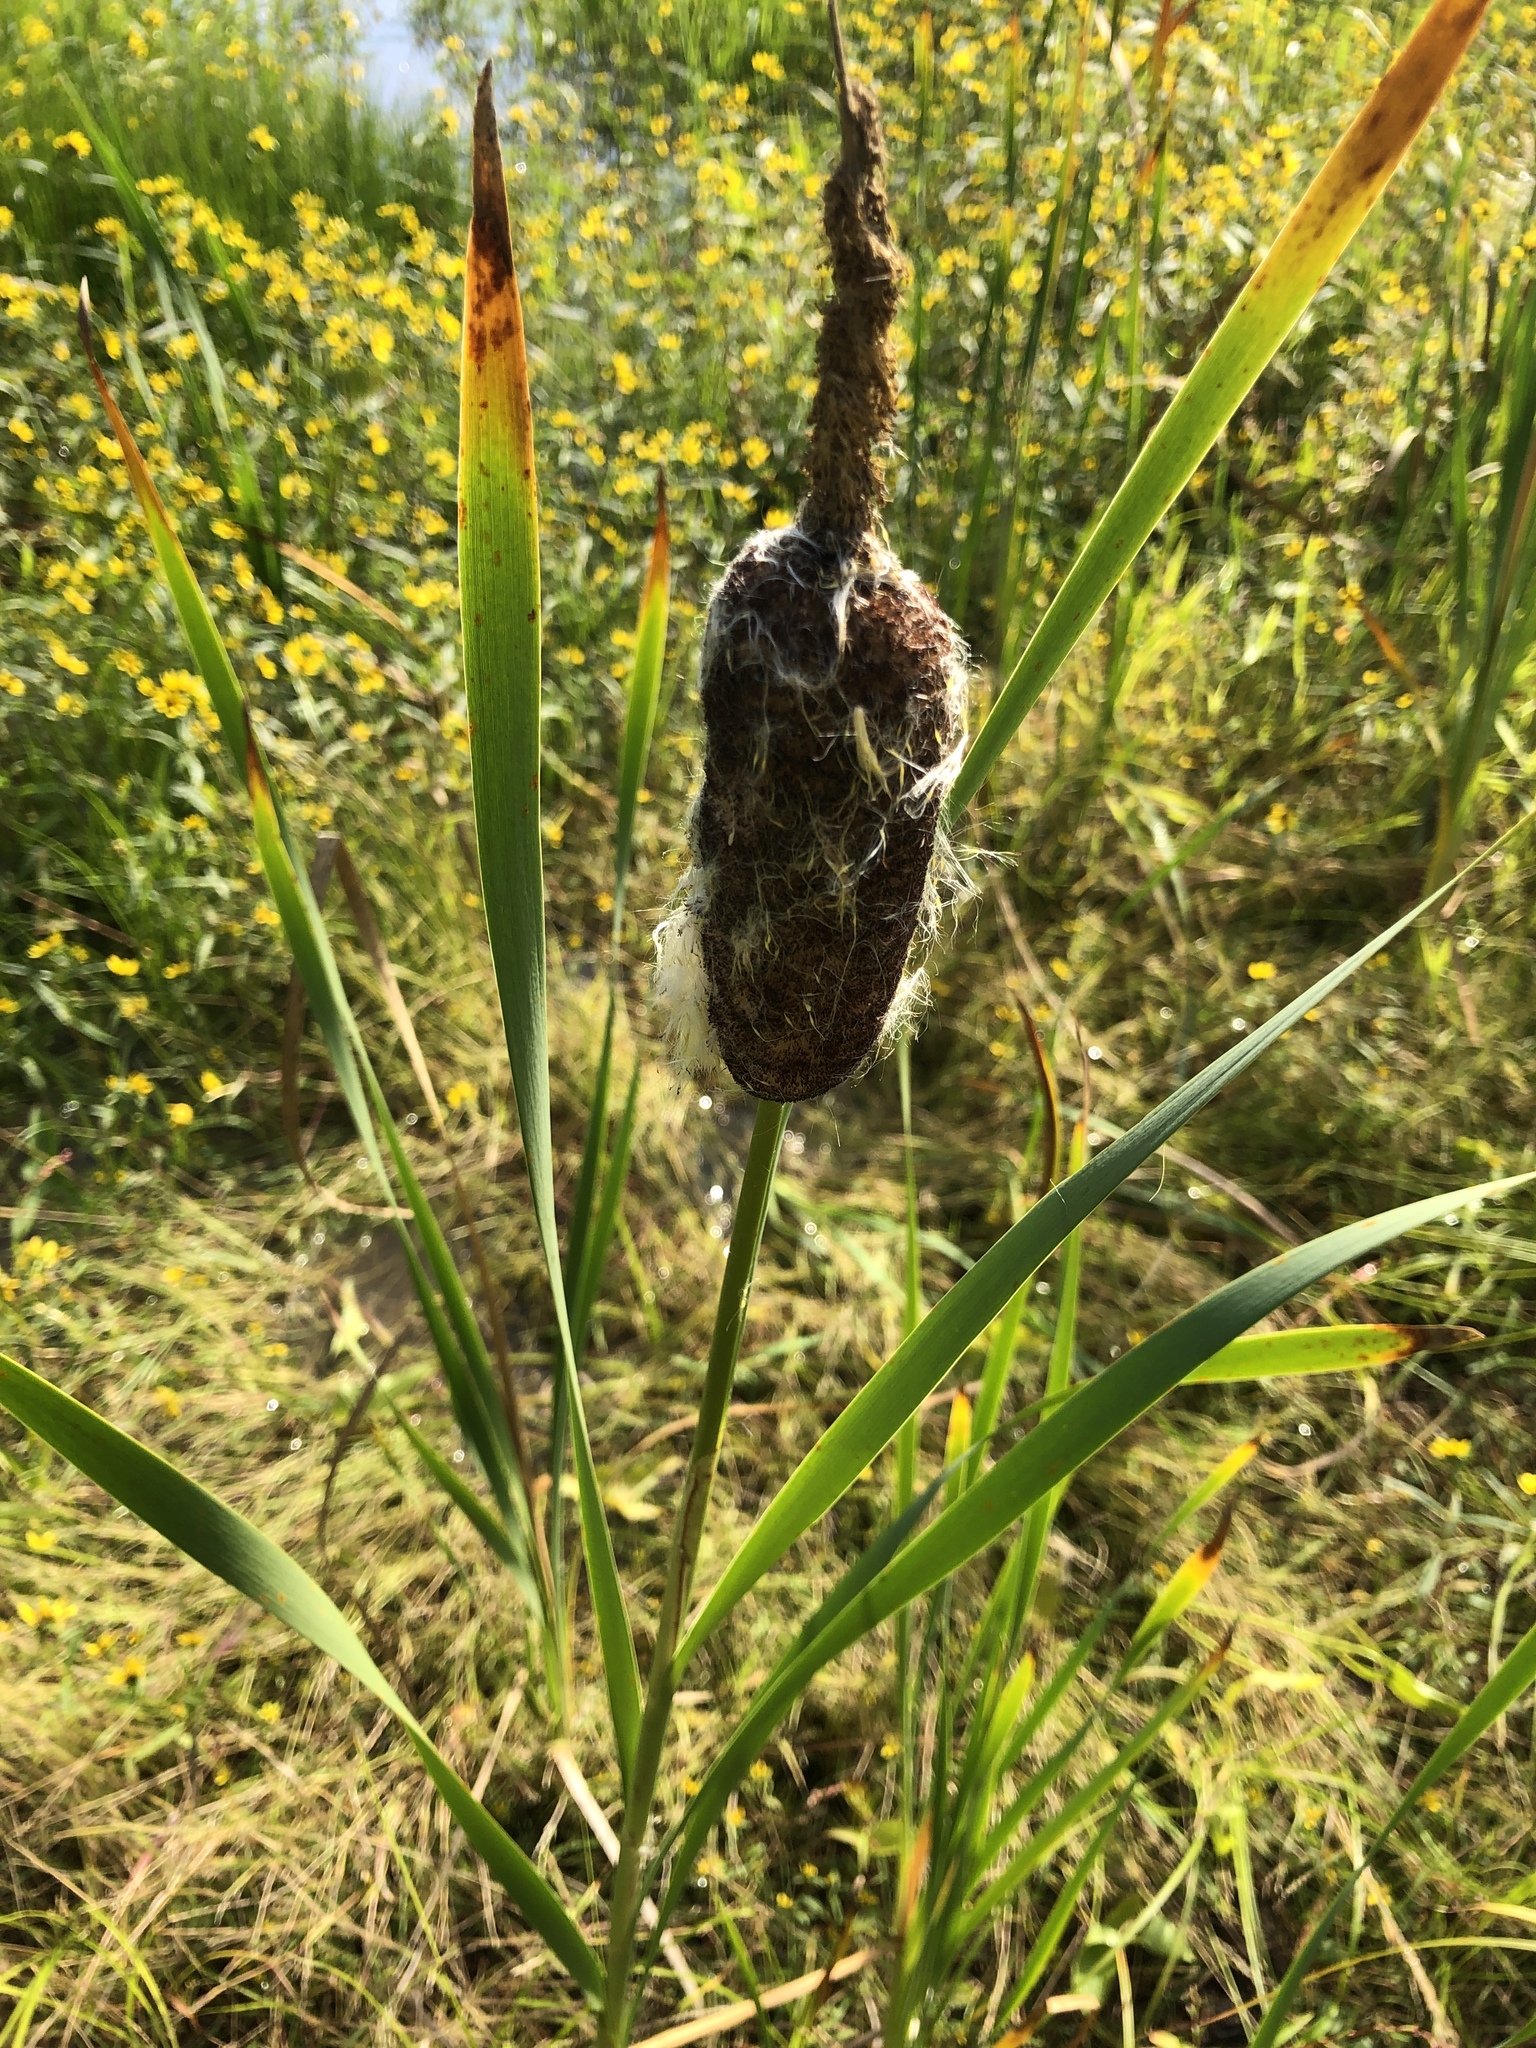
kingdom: Plantae
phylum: Tracheophyta
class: Liliopsida
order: Poales
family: Typhaceae
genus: Typha
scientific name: Typha latifolia
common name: Broadleaf cattail
